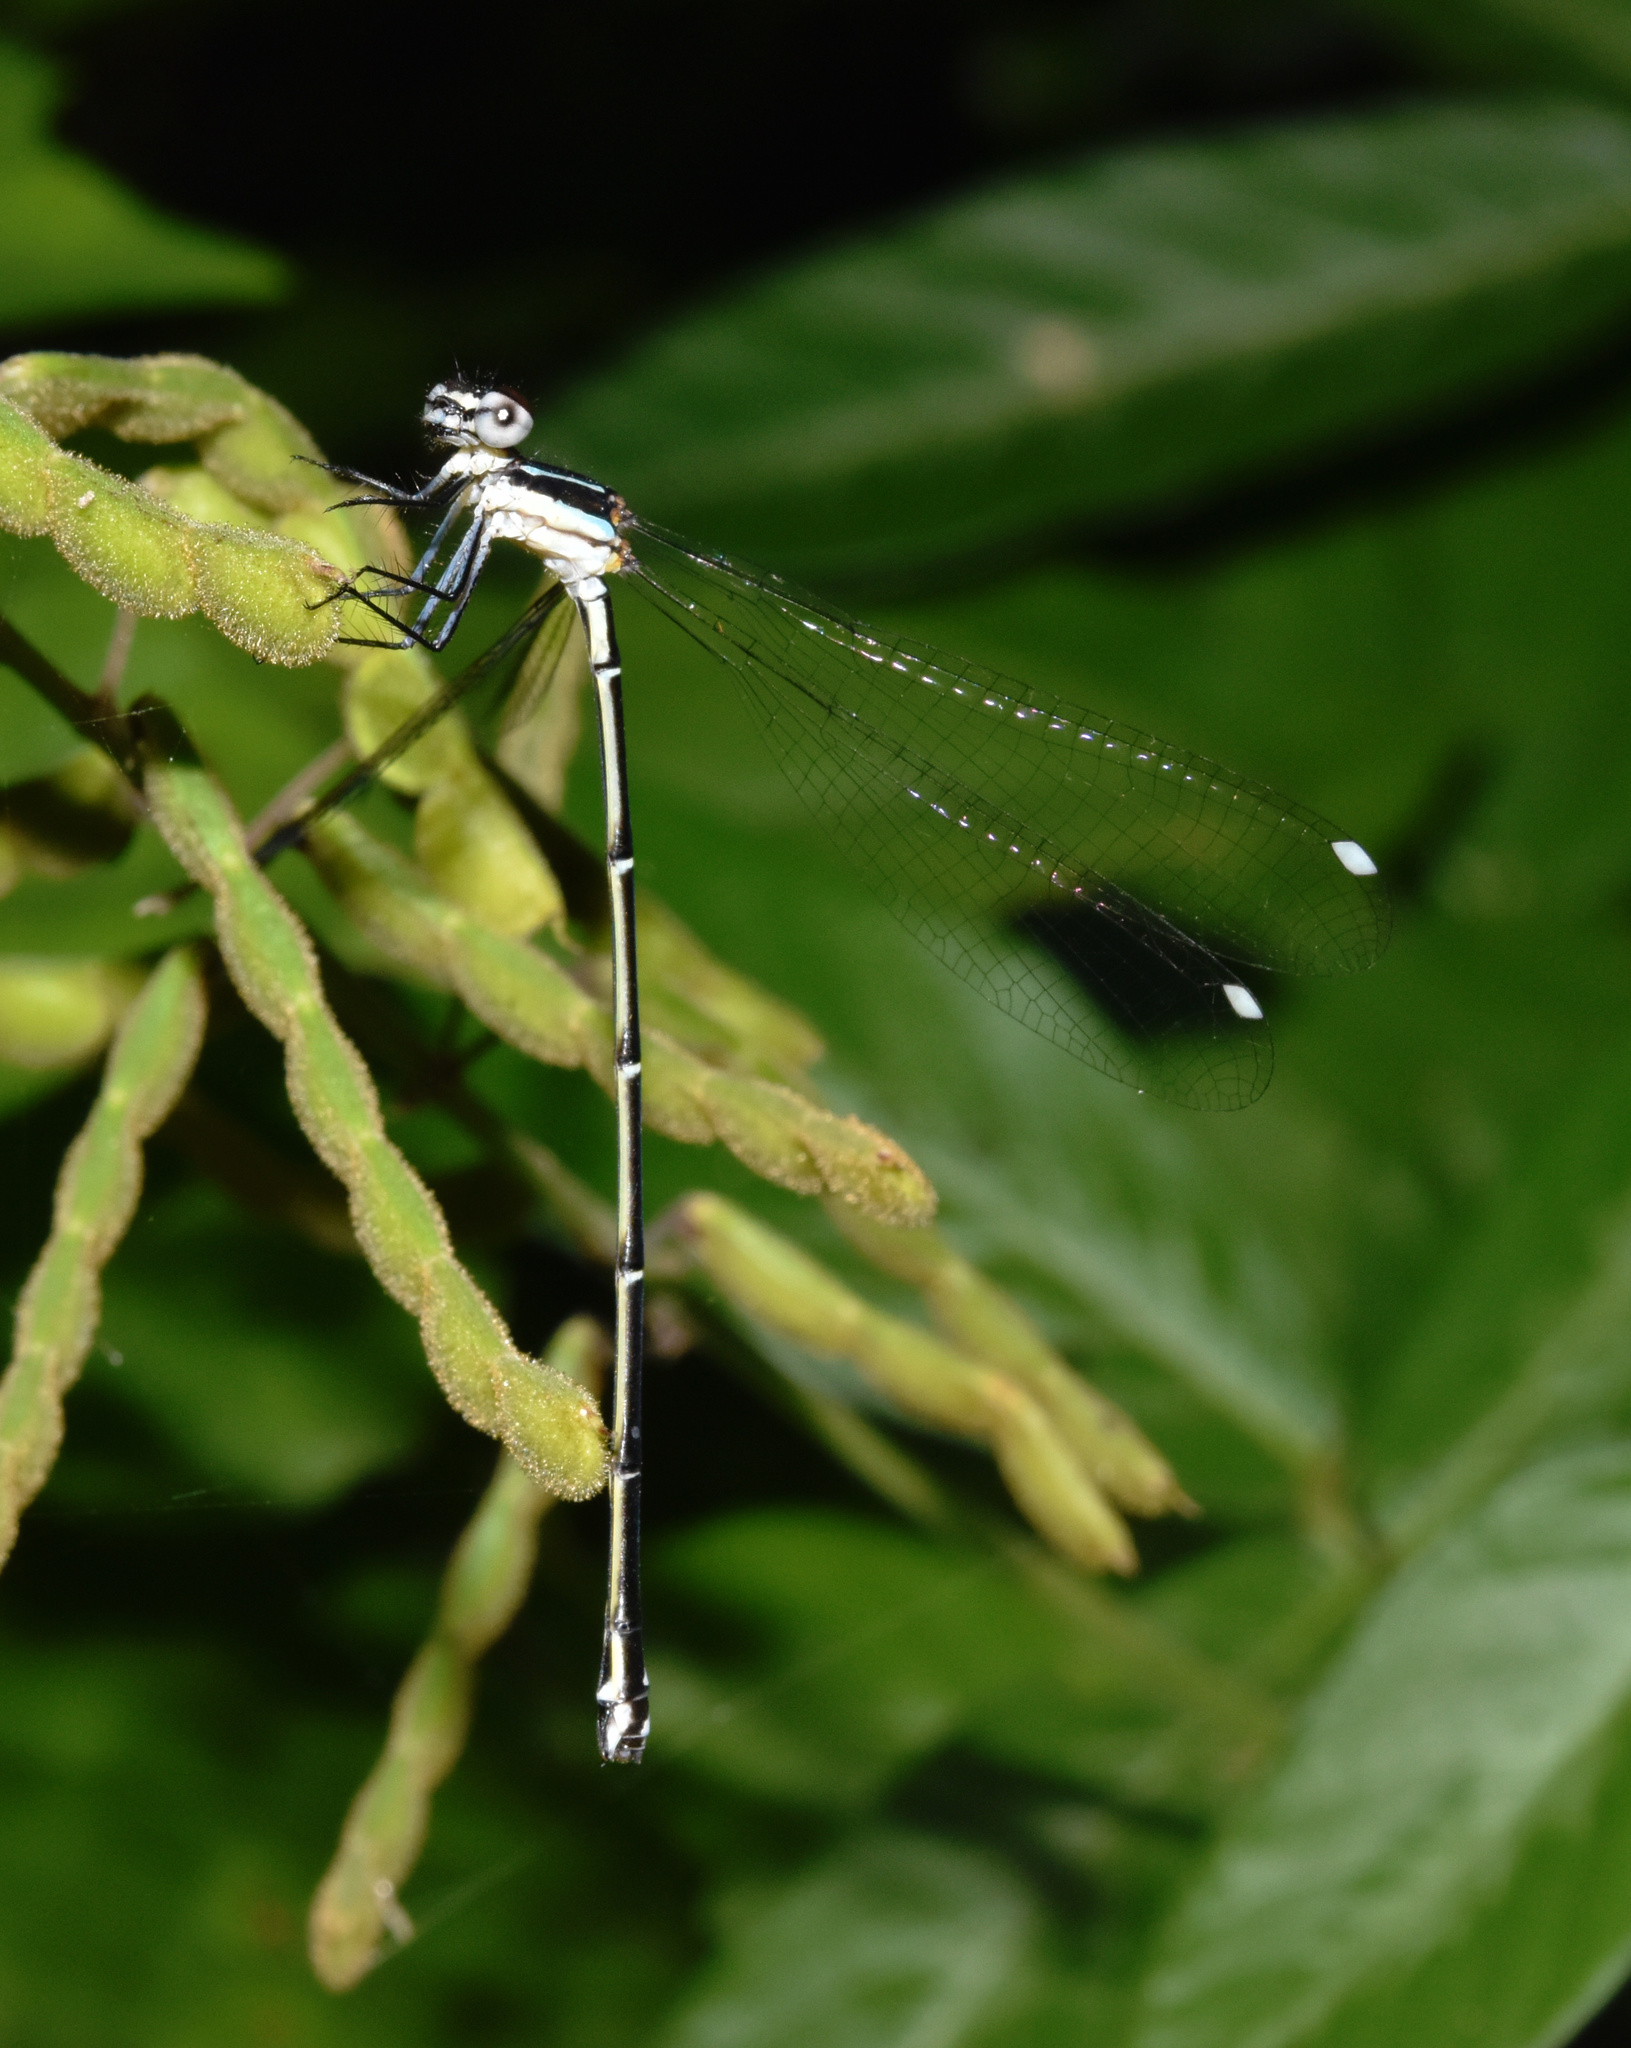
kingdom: Animalia
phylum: Arthropoda
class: Insecta
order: Odonata
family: Platycnemididae
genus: Allocnemis
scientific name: Allocnemis leucosticta
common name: Goldtail
